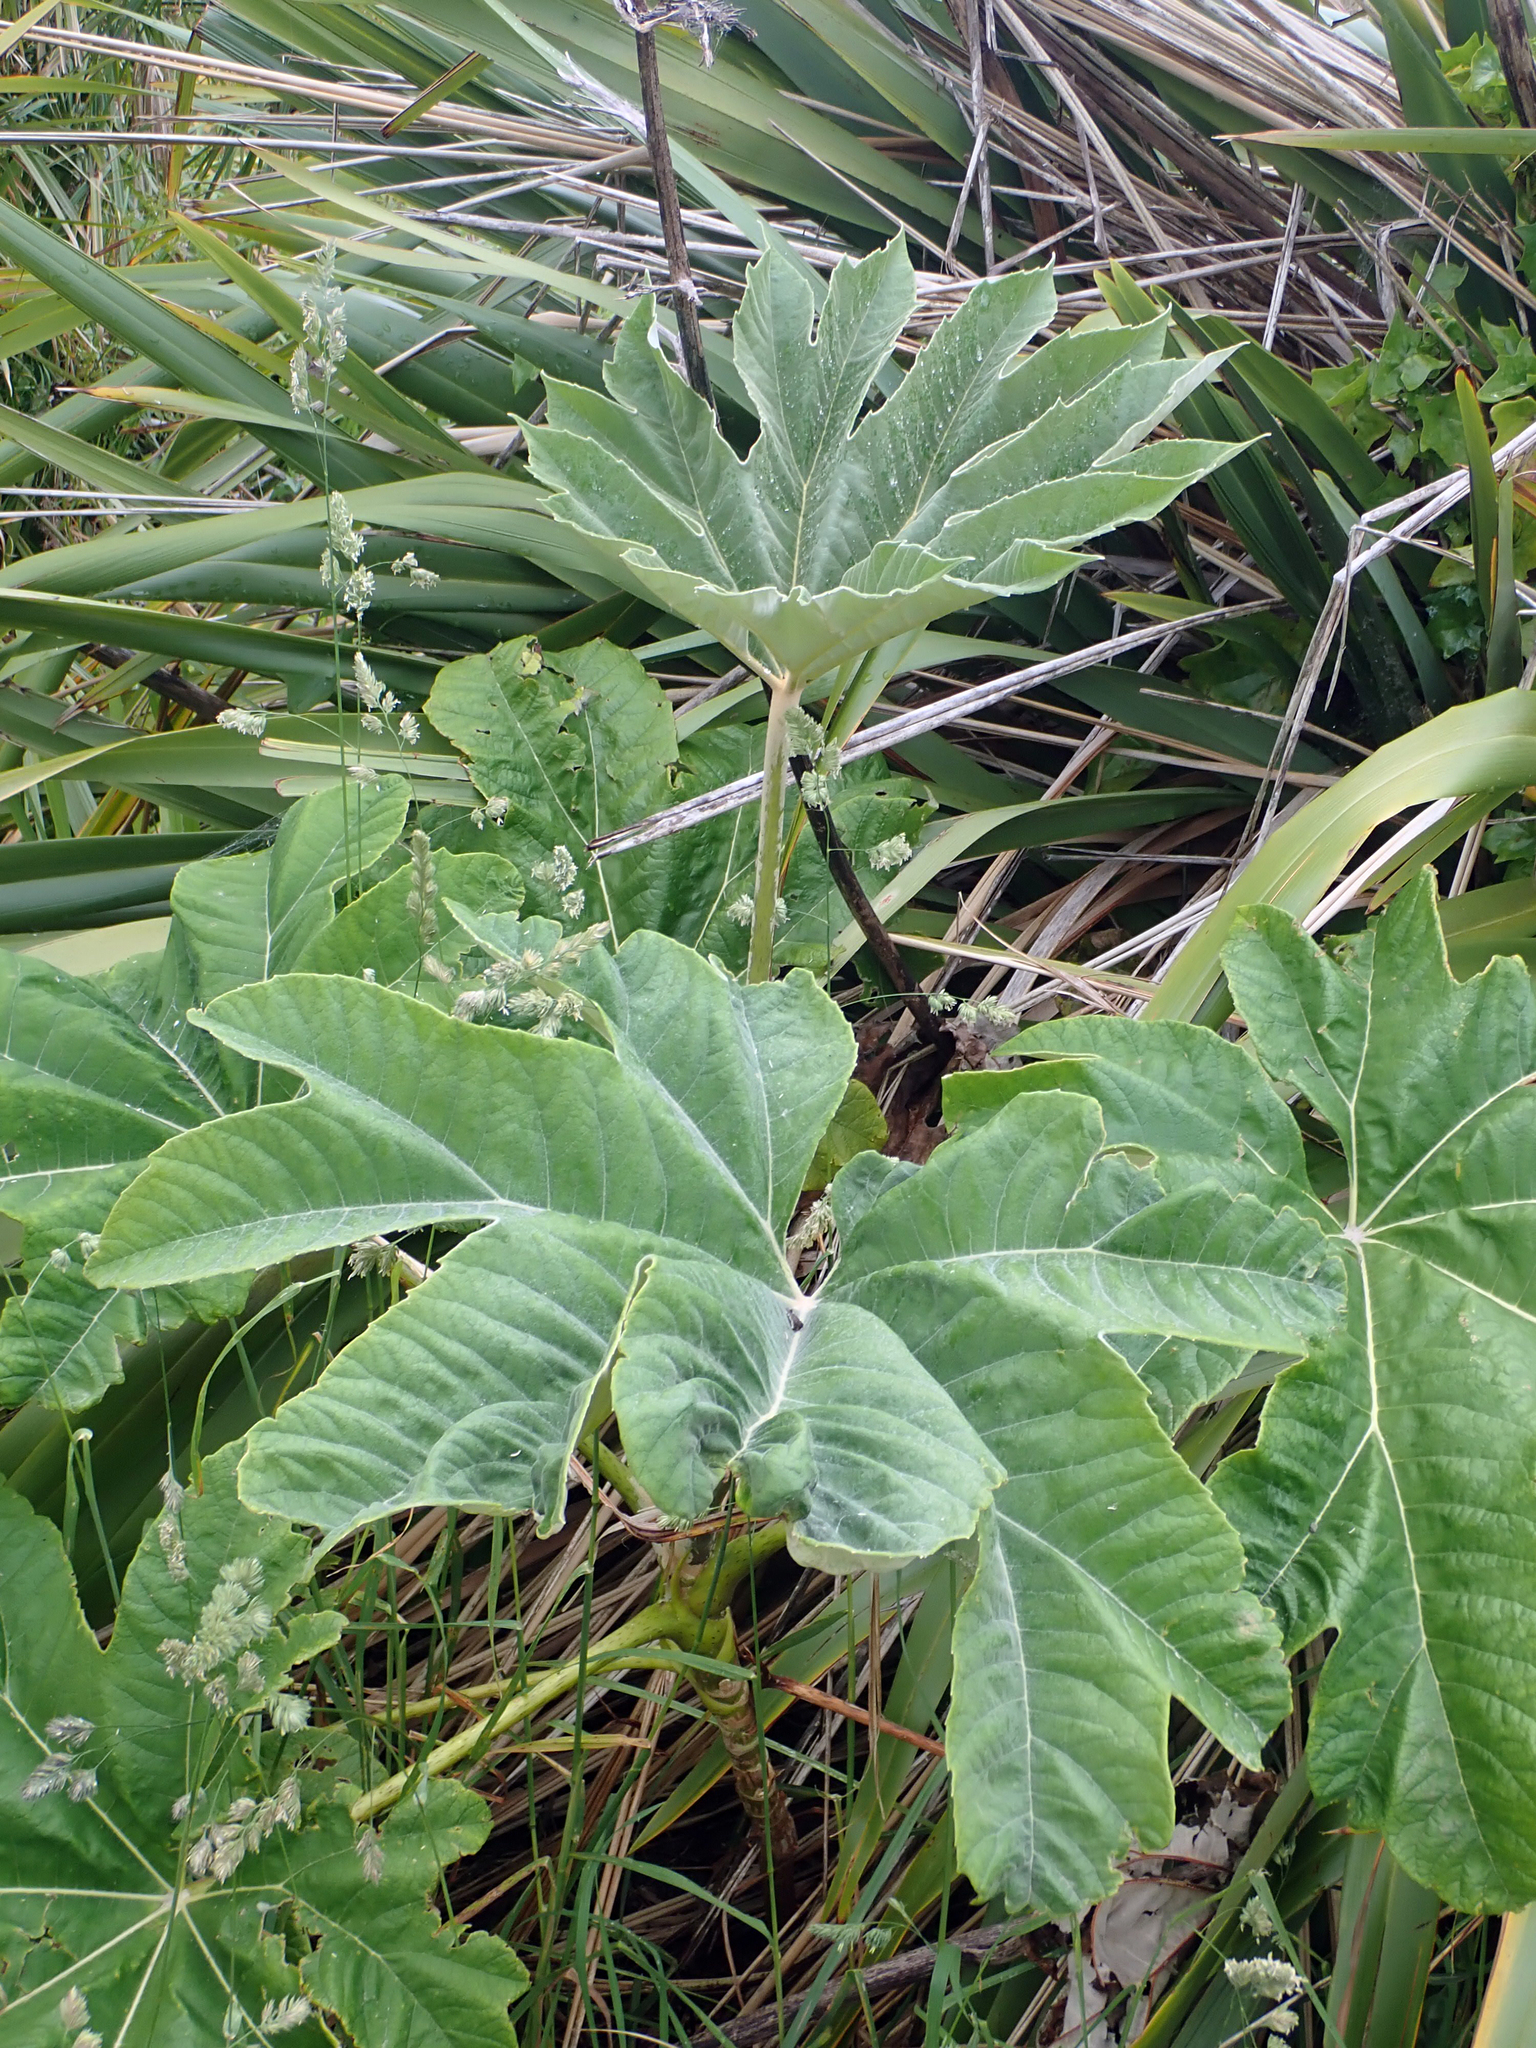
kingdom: Plantae
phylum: Tracheophyta
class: Magnoliopsida
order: Apiales
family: Araliaceae
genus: Tetrapanax
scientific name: Tetrapanax papyrifer
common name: Rice-paper plant
